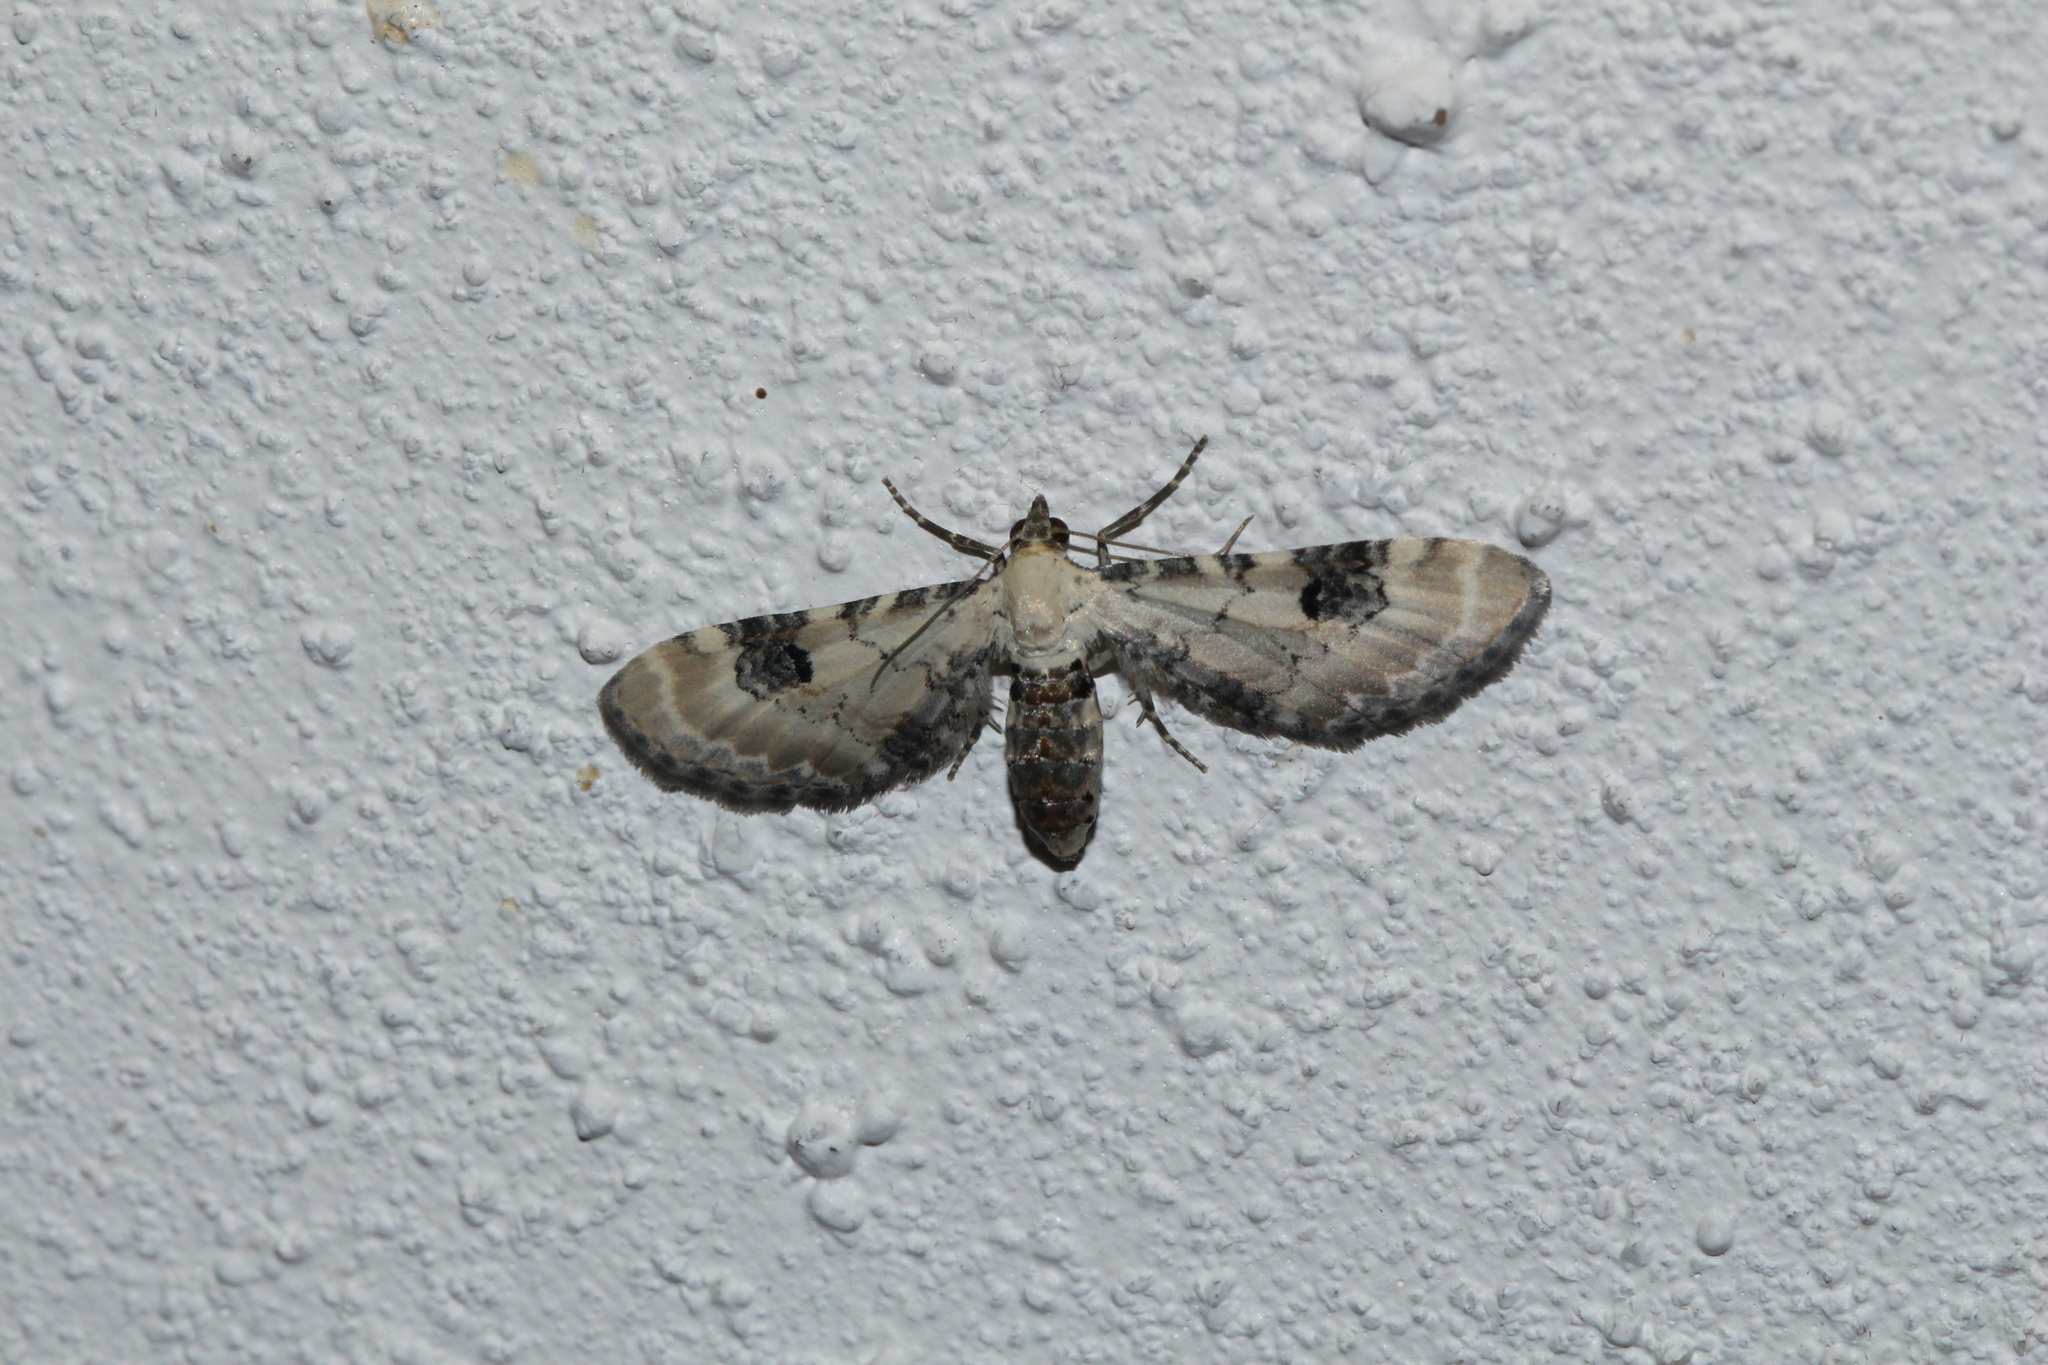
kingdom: Animalia
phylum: Arthropoda
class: Insecta
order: Lepidoptera
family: Geometridae
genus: Eupithecia
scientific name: Eupithecia centaureata
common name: Lime-speck pug
